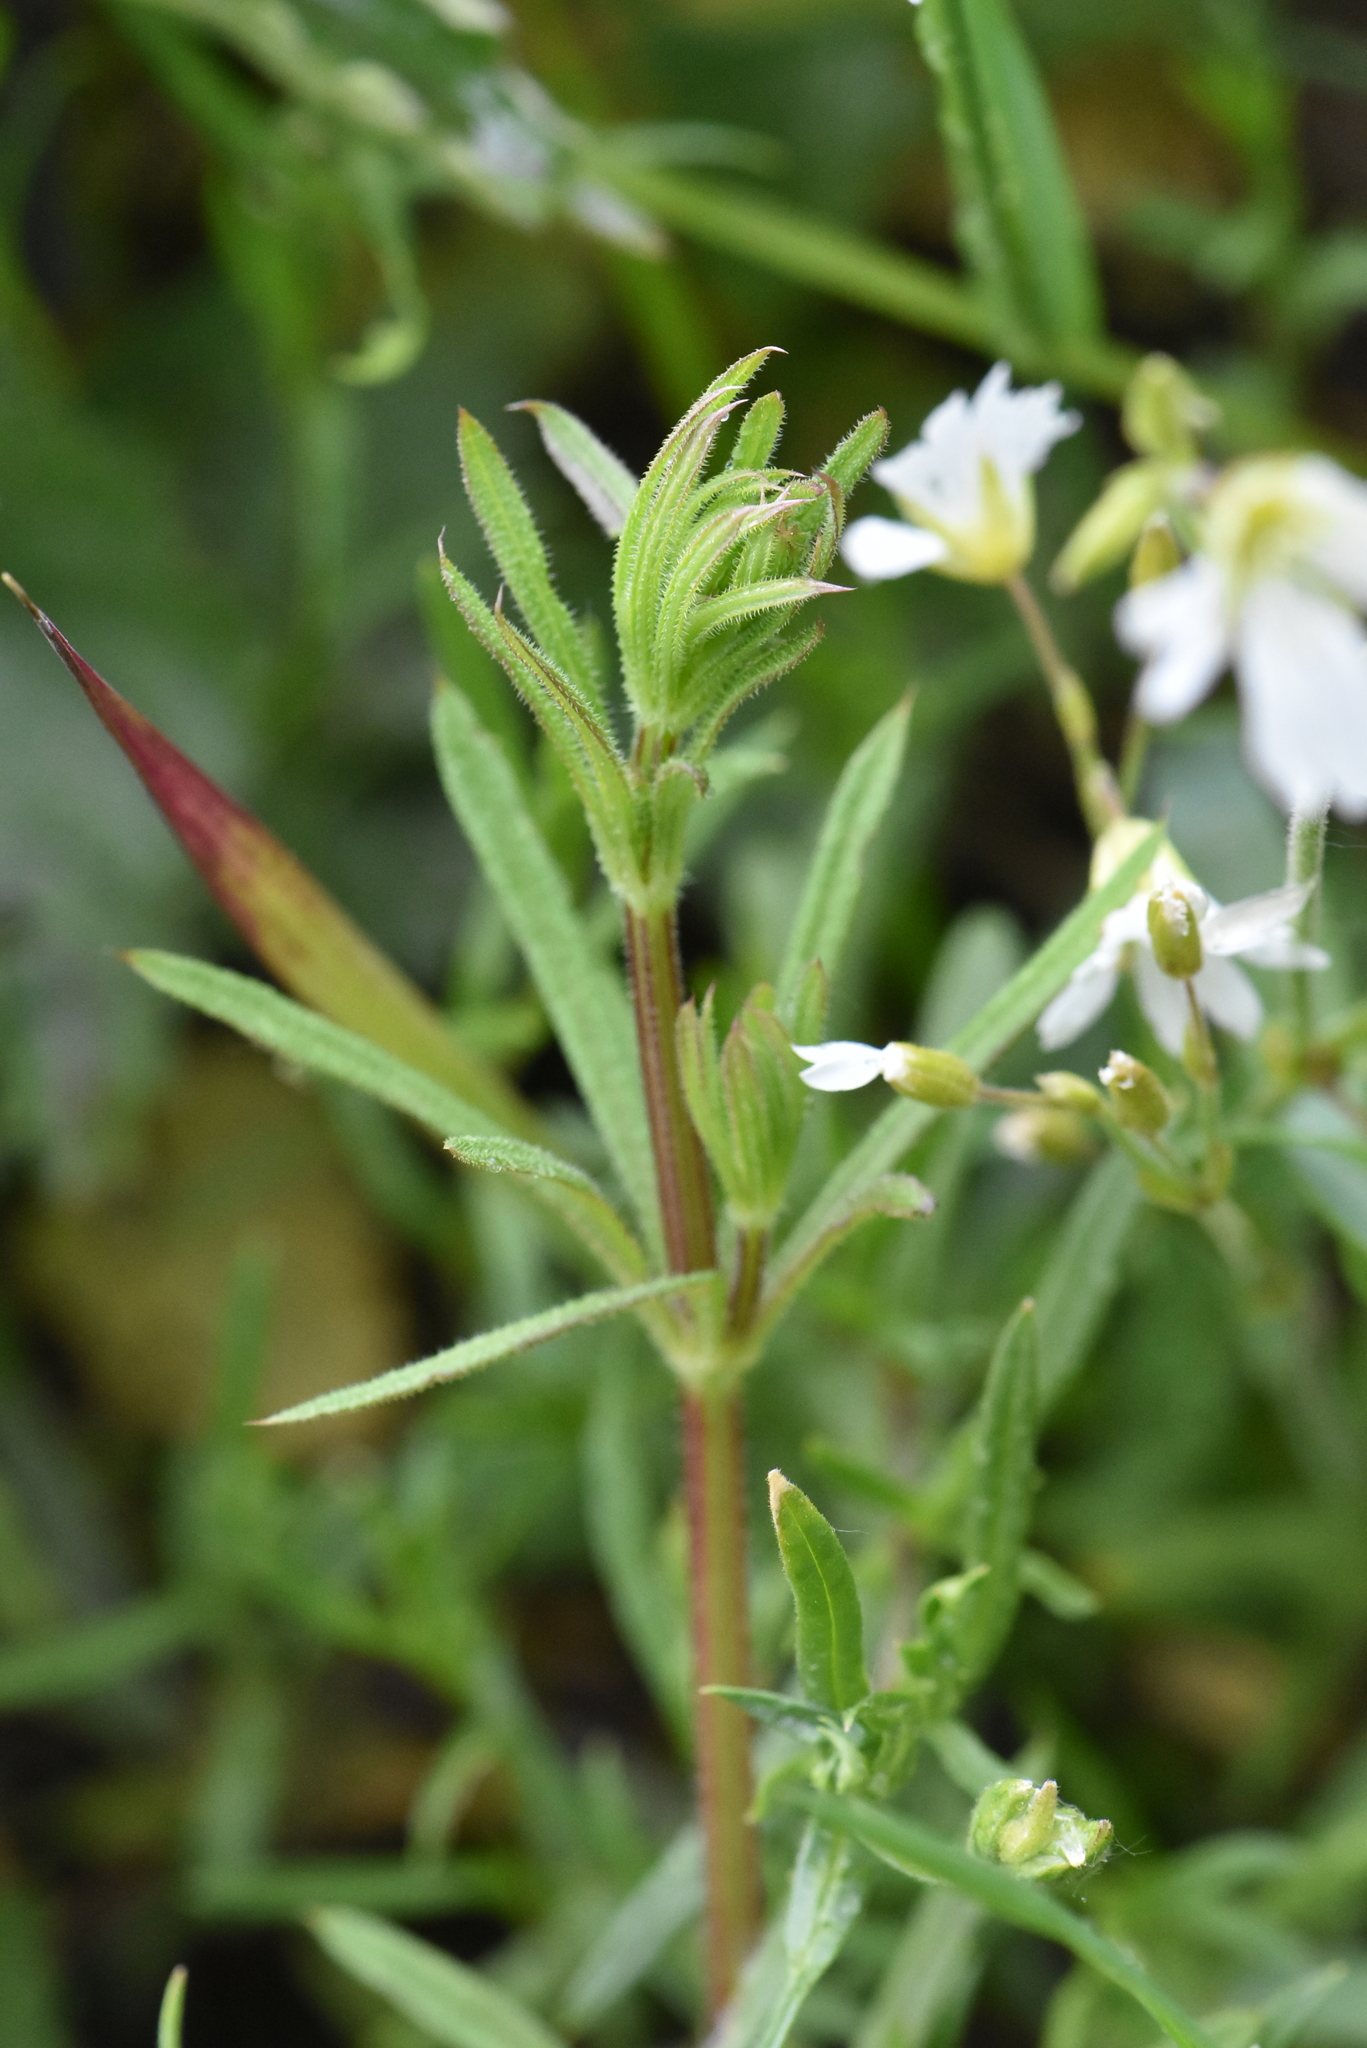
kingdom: Plantae
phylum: Tracheophyta
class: Magnoliopsida
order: Caryophyllales
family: Caryophyllaceae
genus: Cerastium
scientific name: Cerastium arvense
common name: Field mouse-ear
